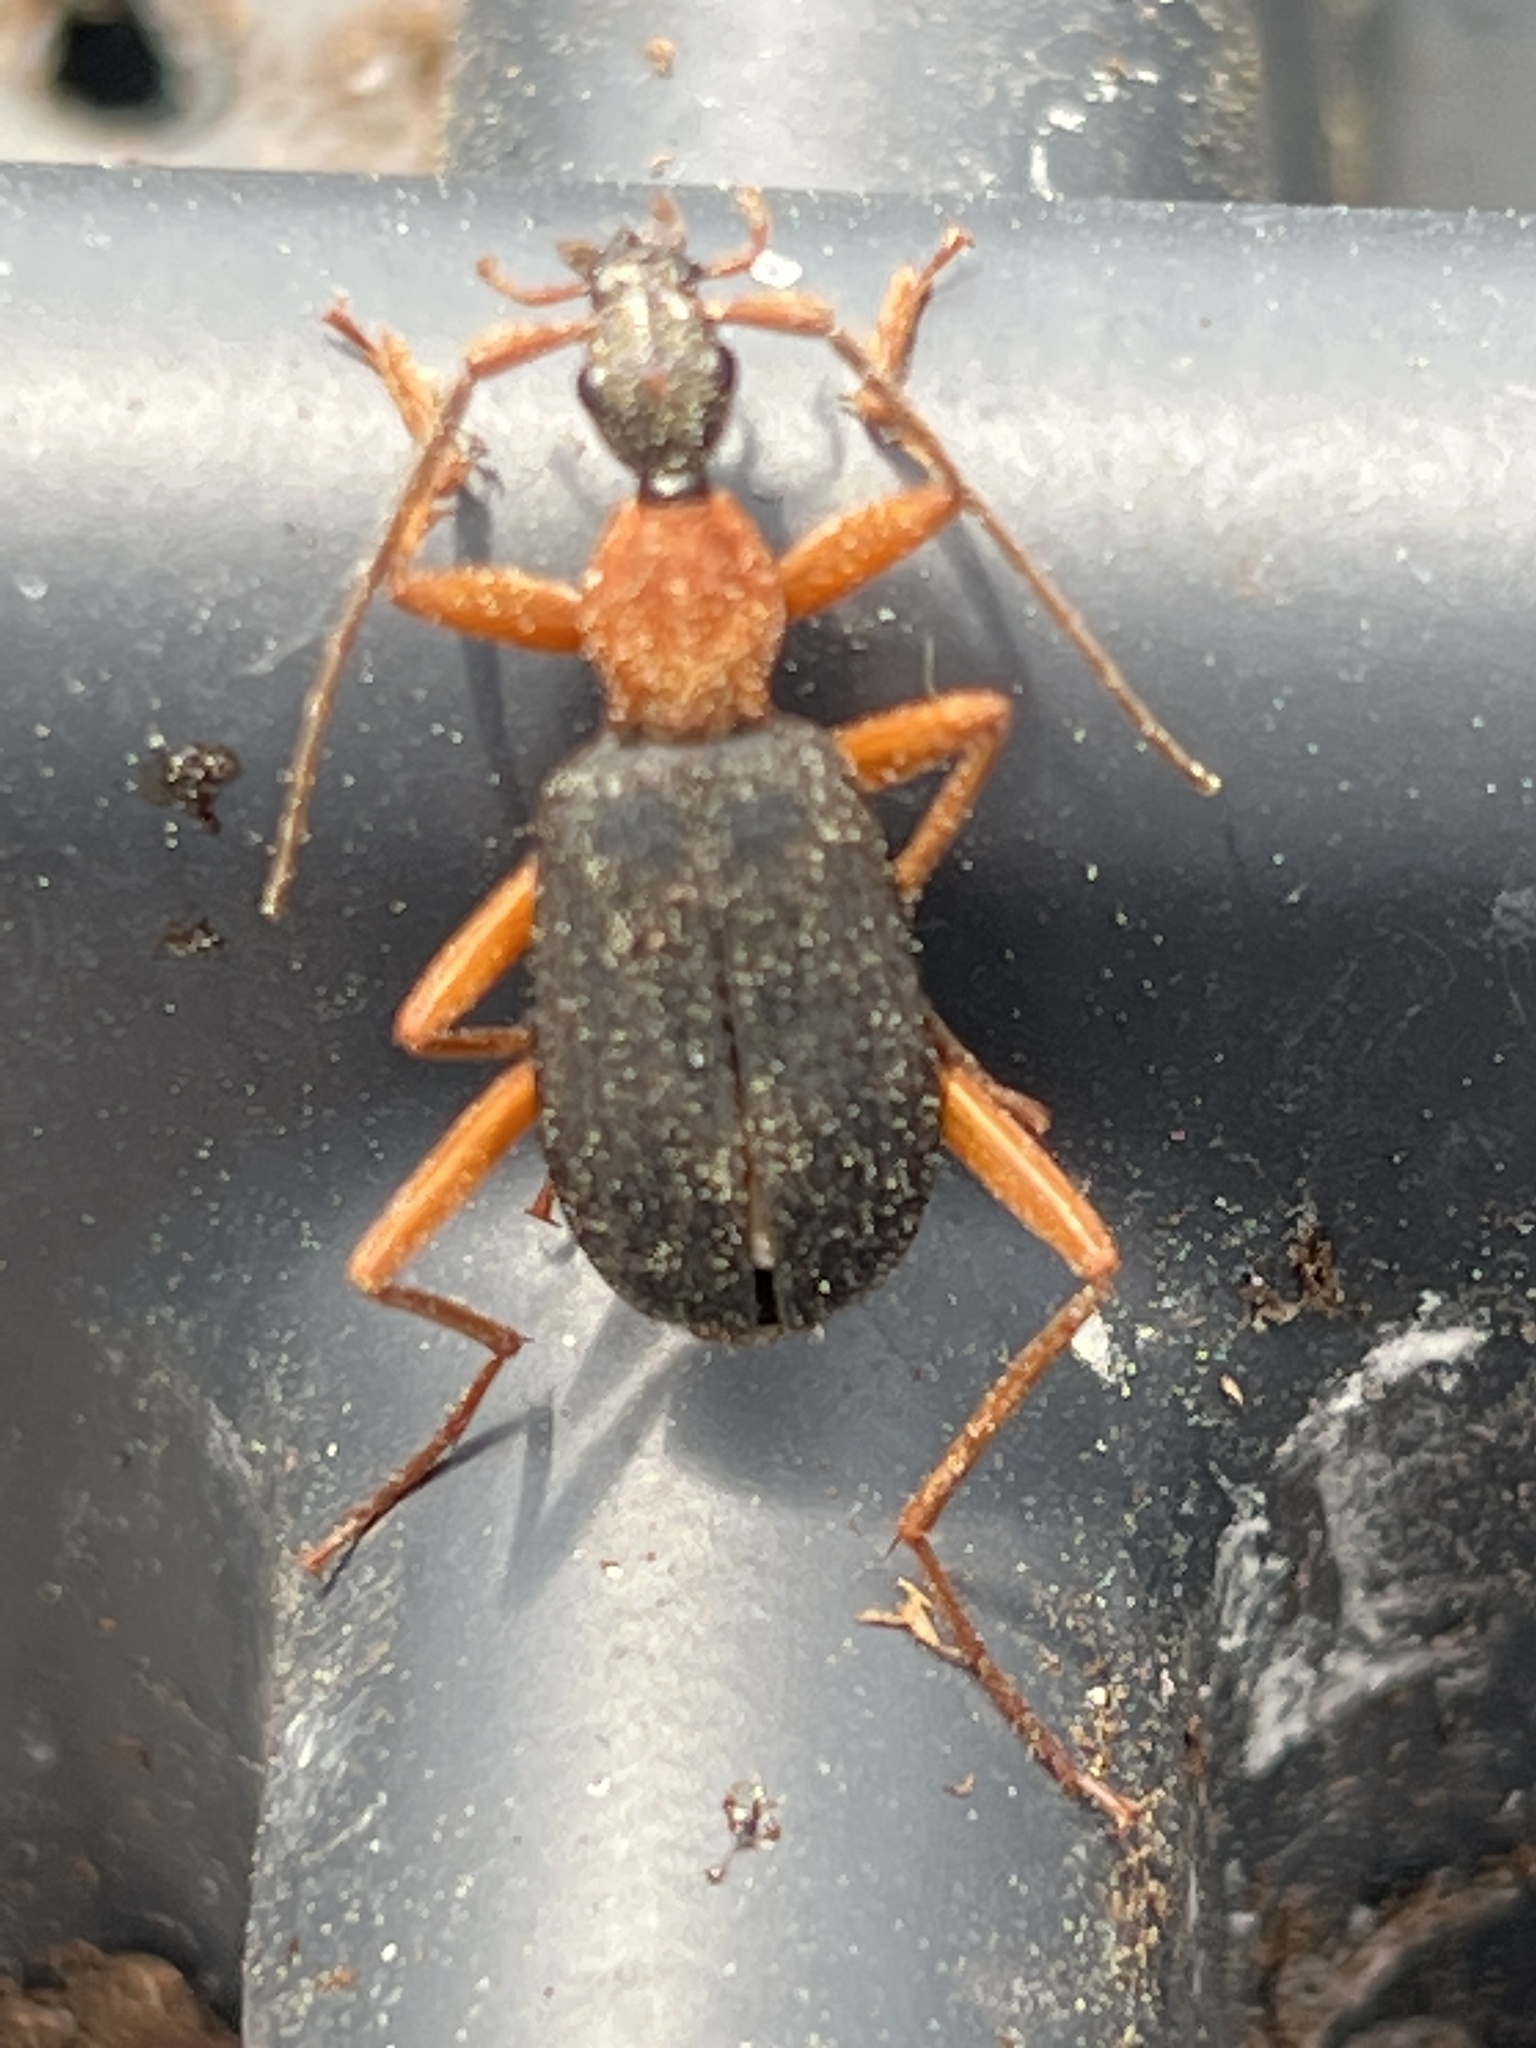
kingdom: Animalia
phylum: Arthropoda
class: Insecta
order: Coleoptera
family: Carabidae
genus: Galerita
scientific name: Galerita bicolor
